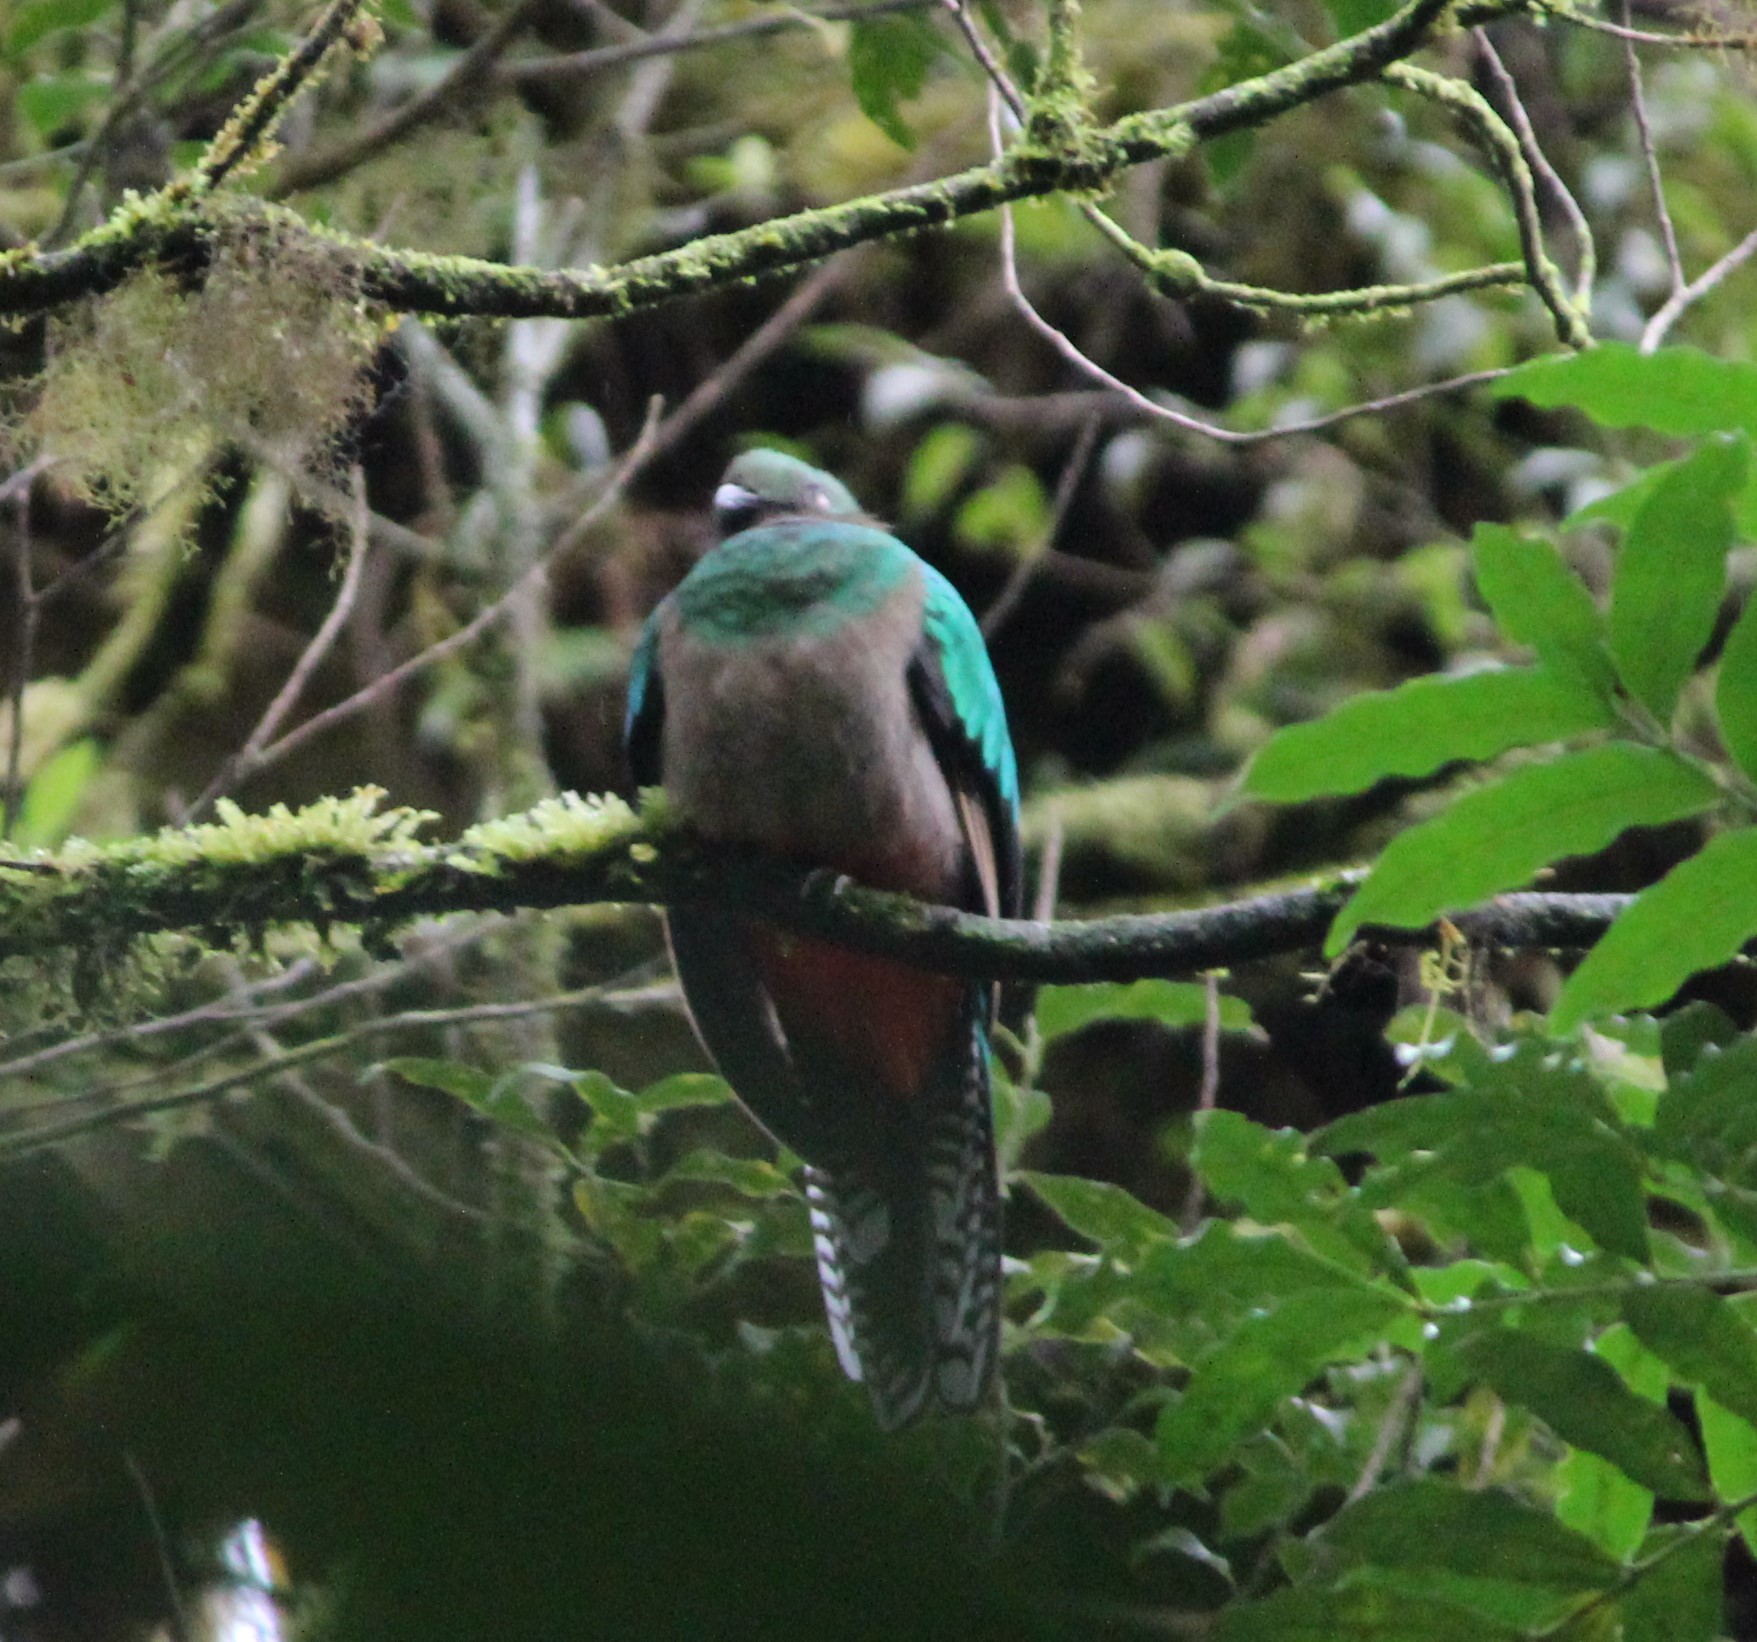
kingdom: Animalia
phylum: Chordata
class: Aves
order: Trogoniformes
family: Trogonidae
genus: Pharomachrus
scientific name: Pharomachrus mocinno
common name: Resplendent quetzal
